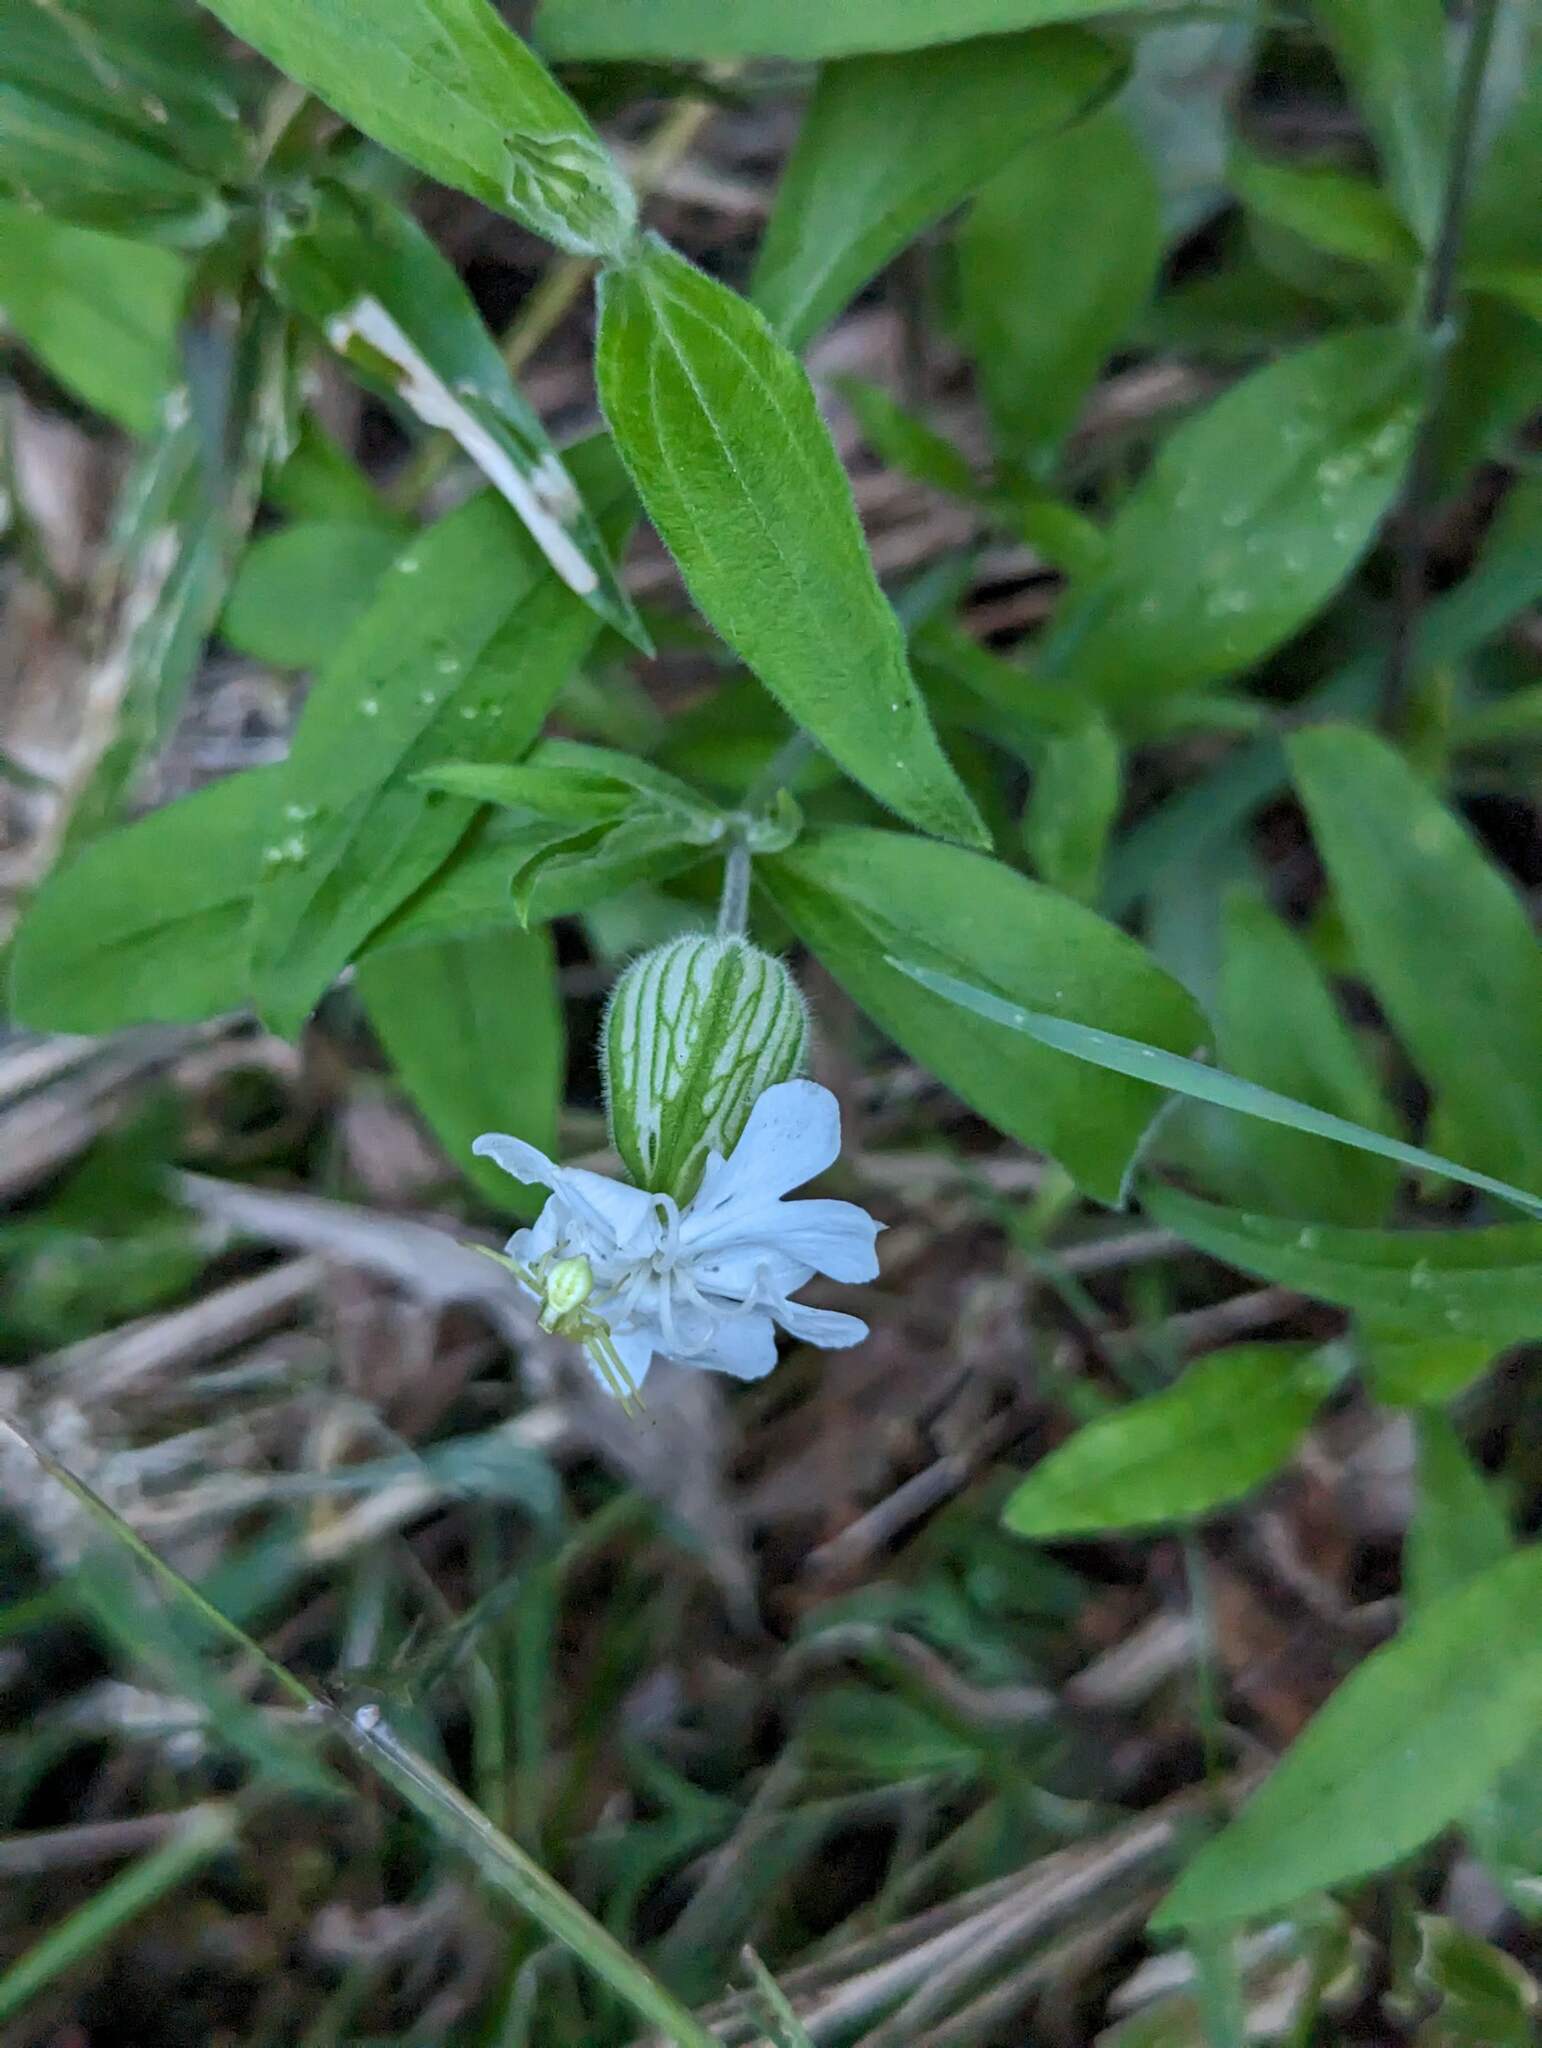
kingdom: Plantae
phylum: Tracheophyta
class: Magnoliopsida
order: Caryophyllales
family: Caryophyllaceae
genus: Silene
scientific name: Silene latifolia
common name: White campion
